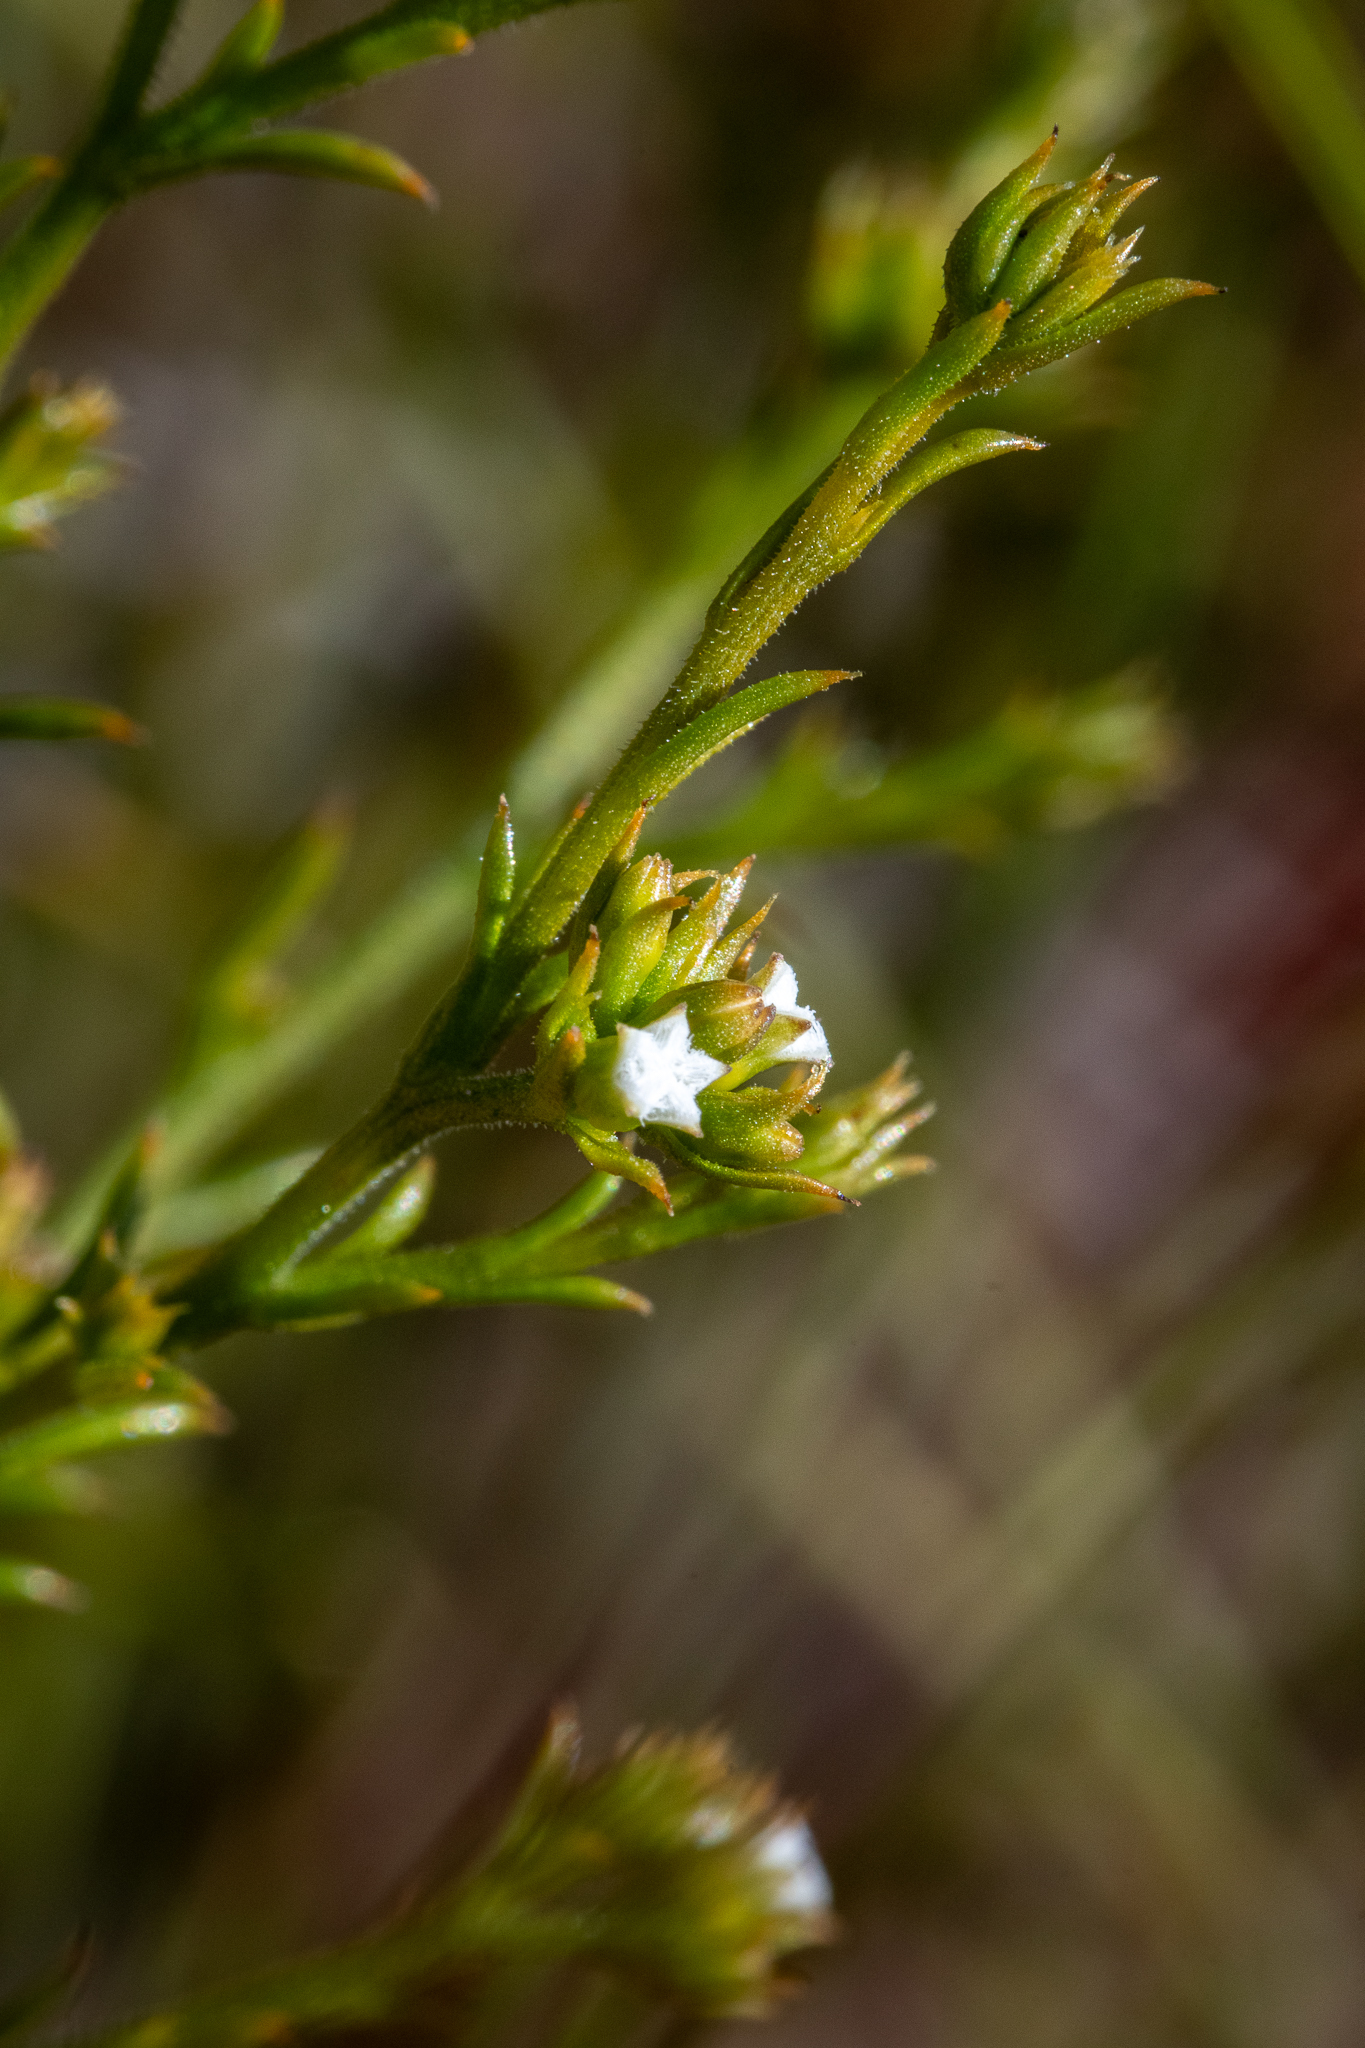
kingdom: Plantae
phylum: Tracheophyta
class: Magnoliopsida
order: Santalales
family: Thesiaceae
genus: Thesium
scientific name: Thesium hispidulum
